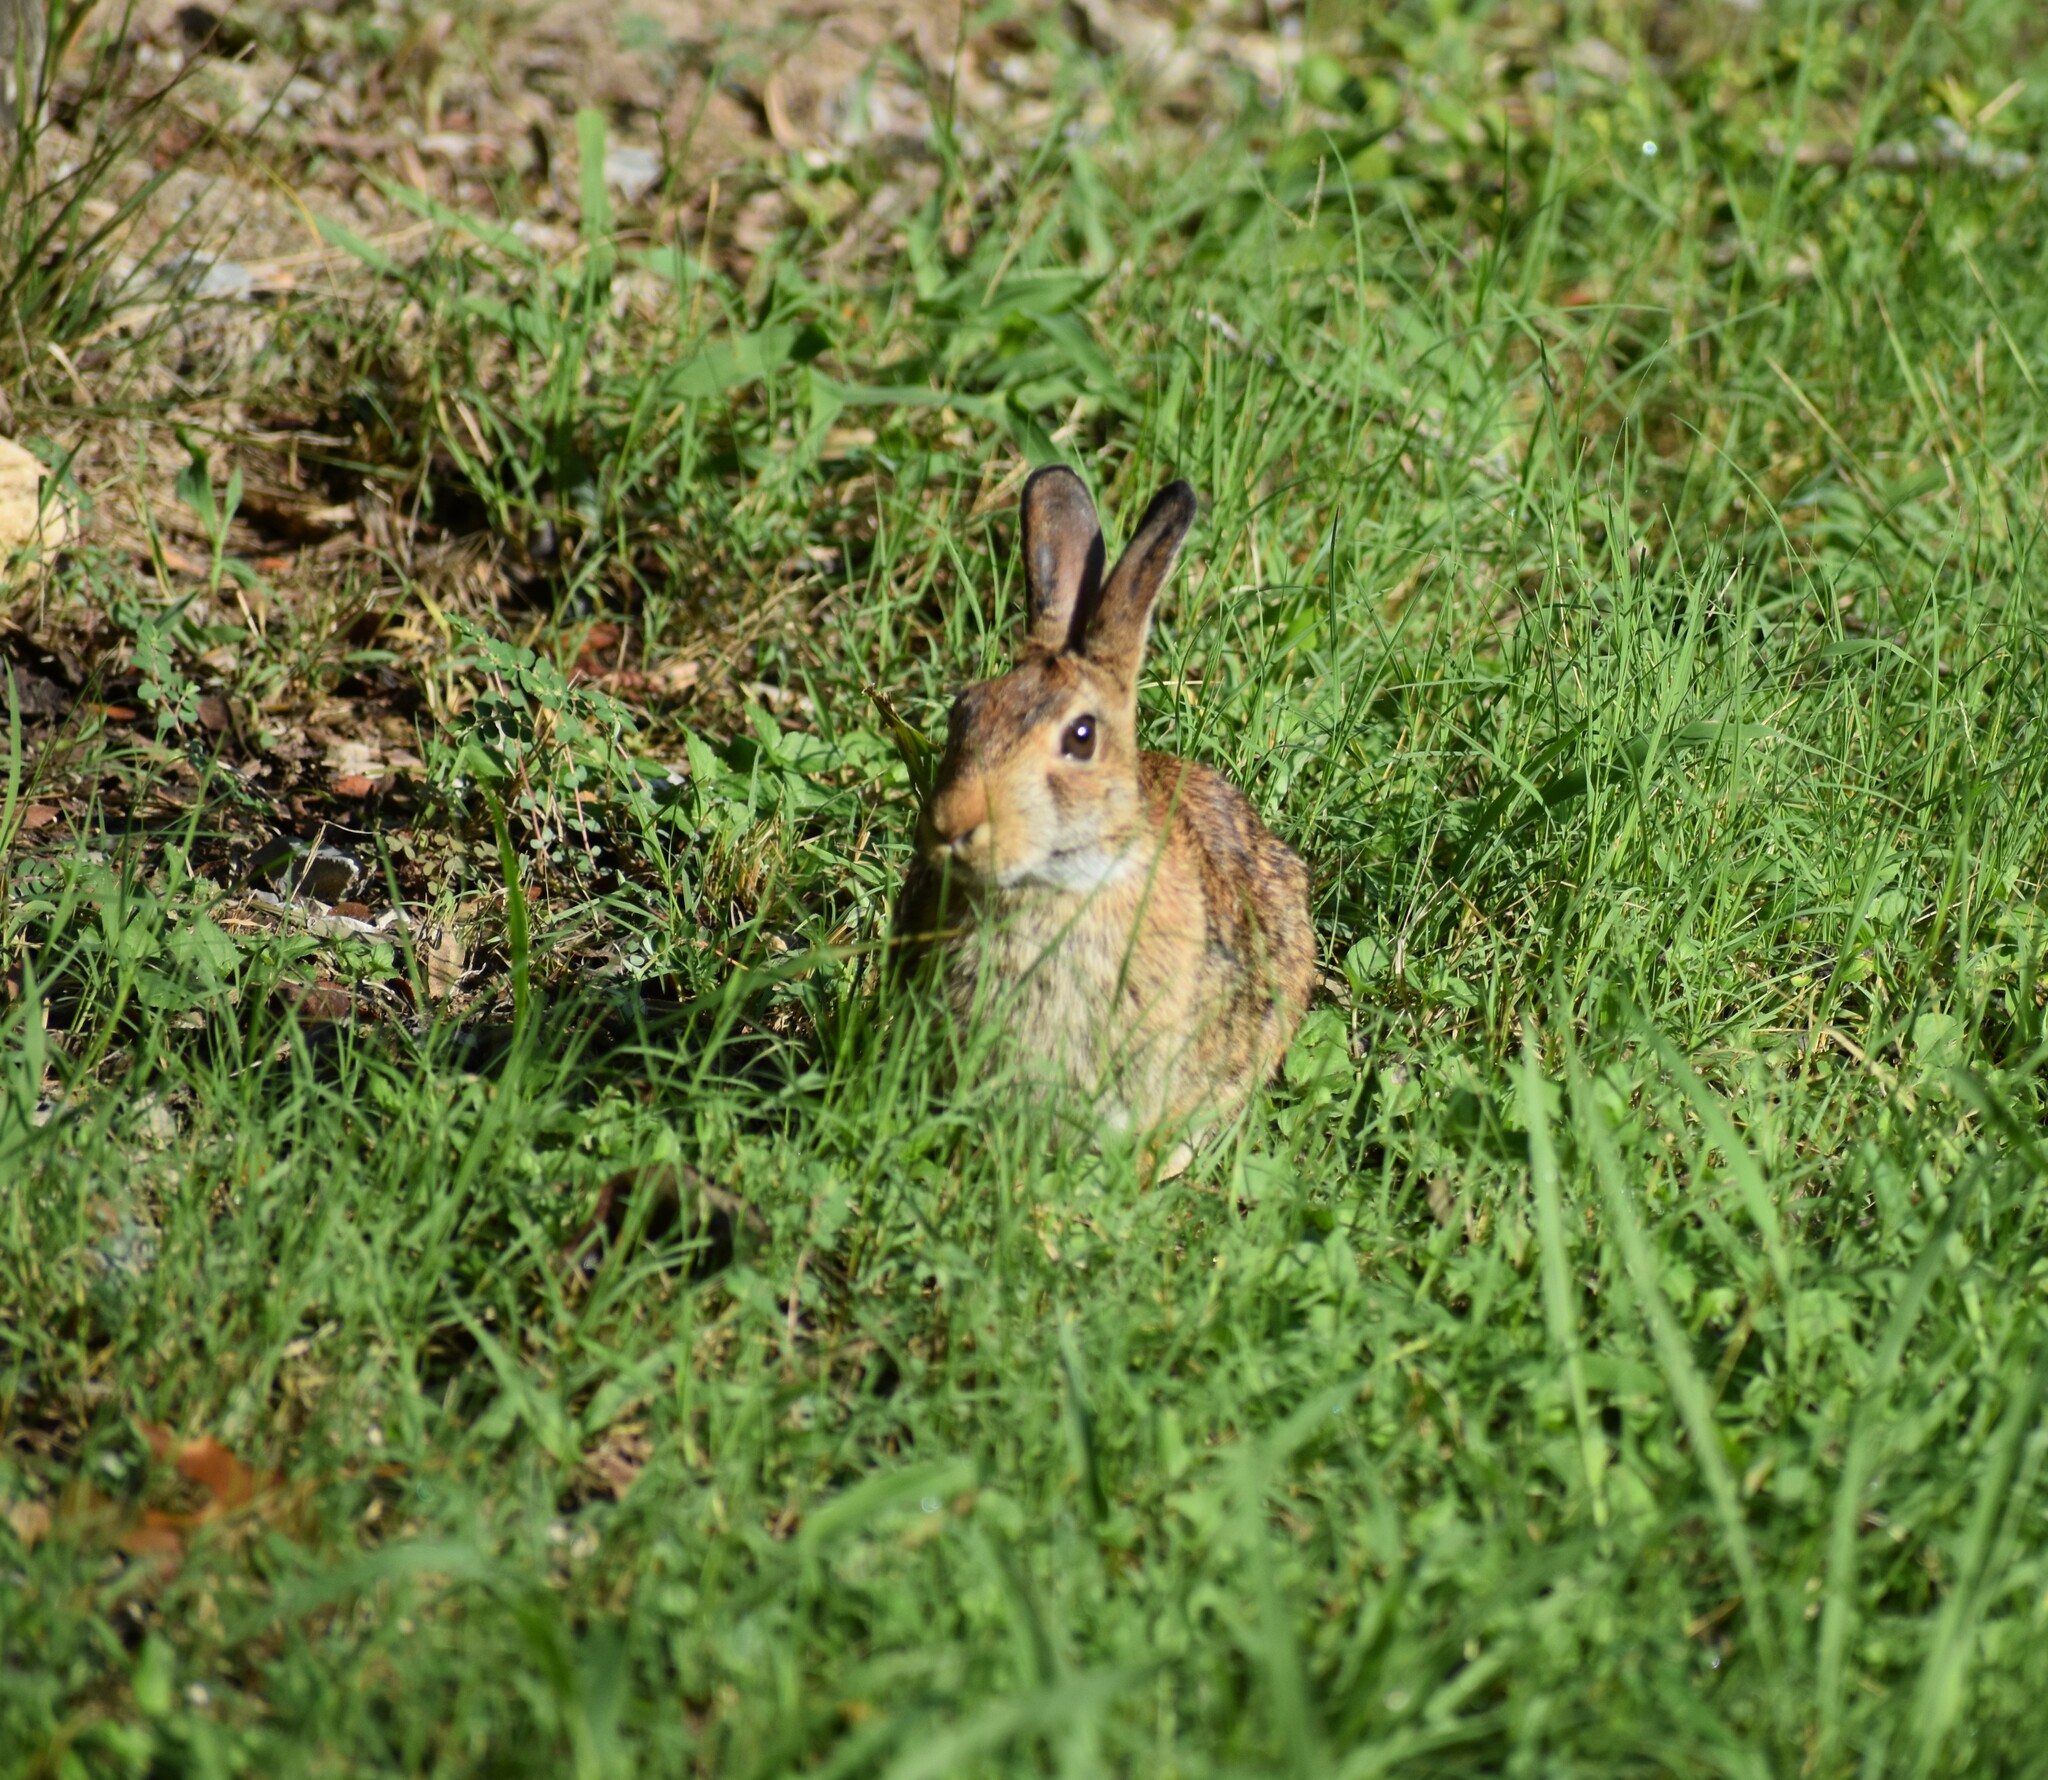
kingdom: Animalia
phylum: Chordata
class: Mammalia
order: Lagomorpha
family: Leporidae
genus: Sylvilagus
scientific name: Sylvilagus floridanus
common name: Eastern cottontail
